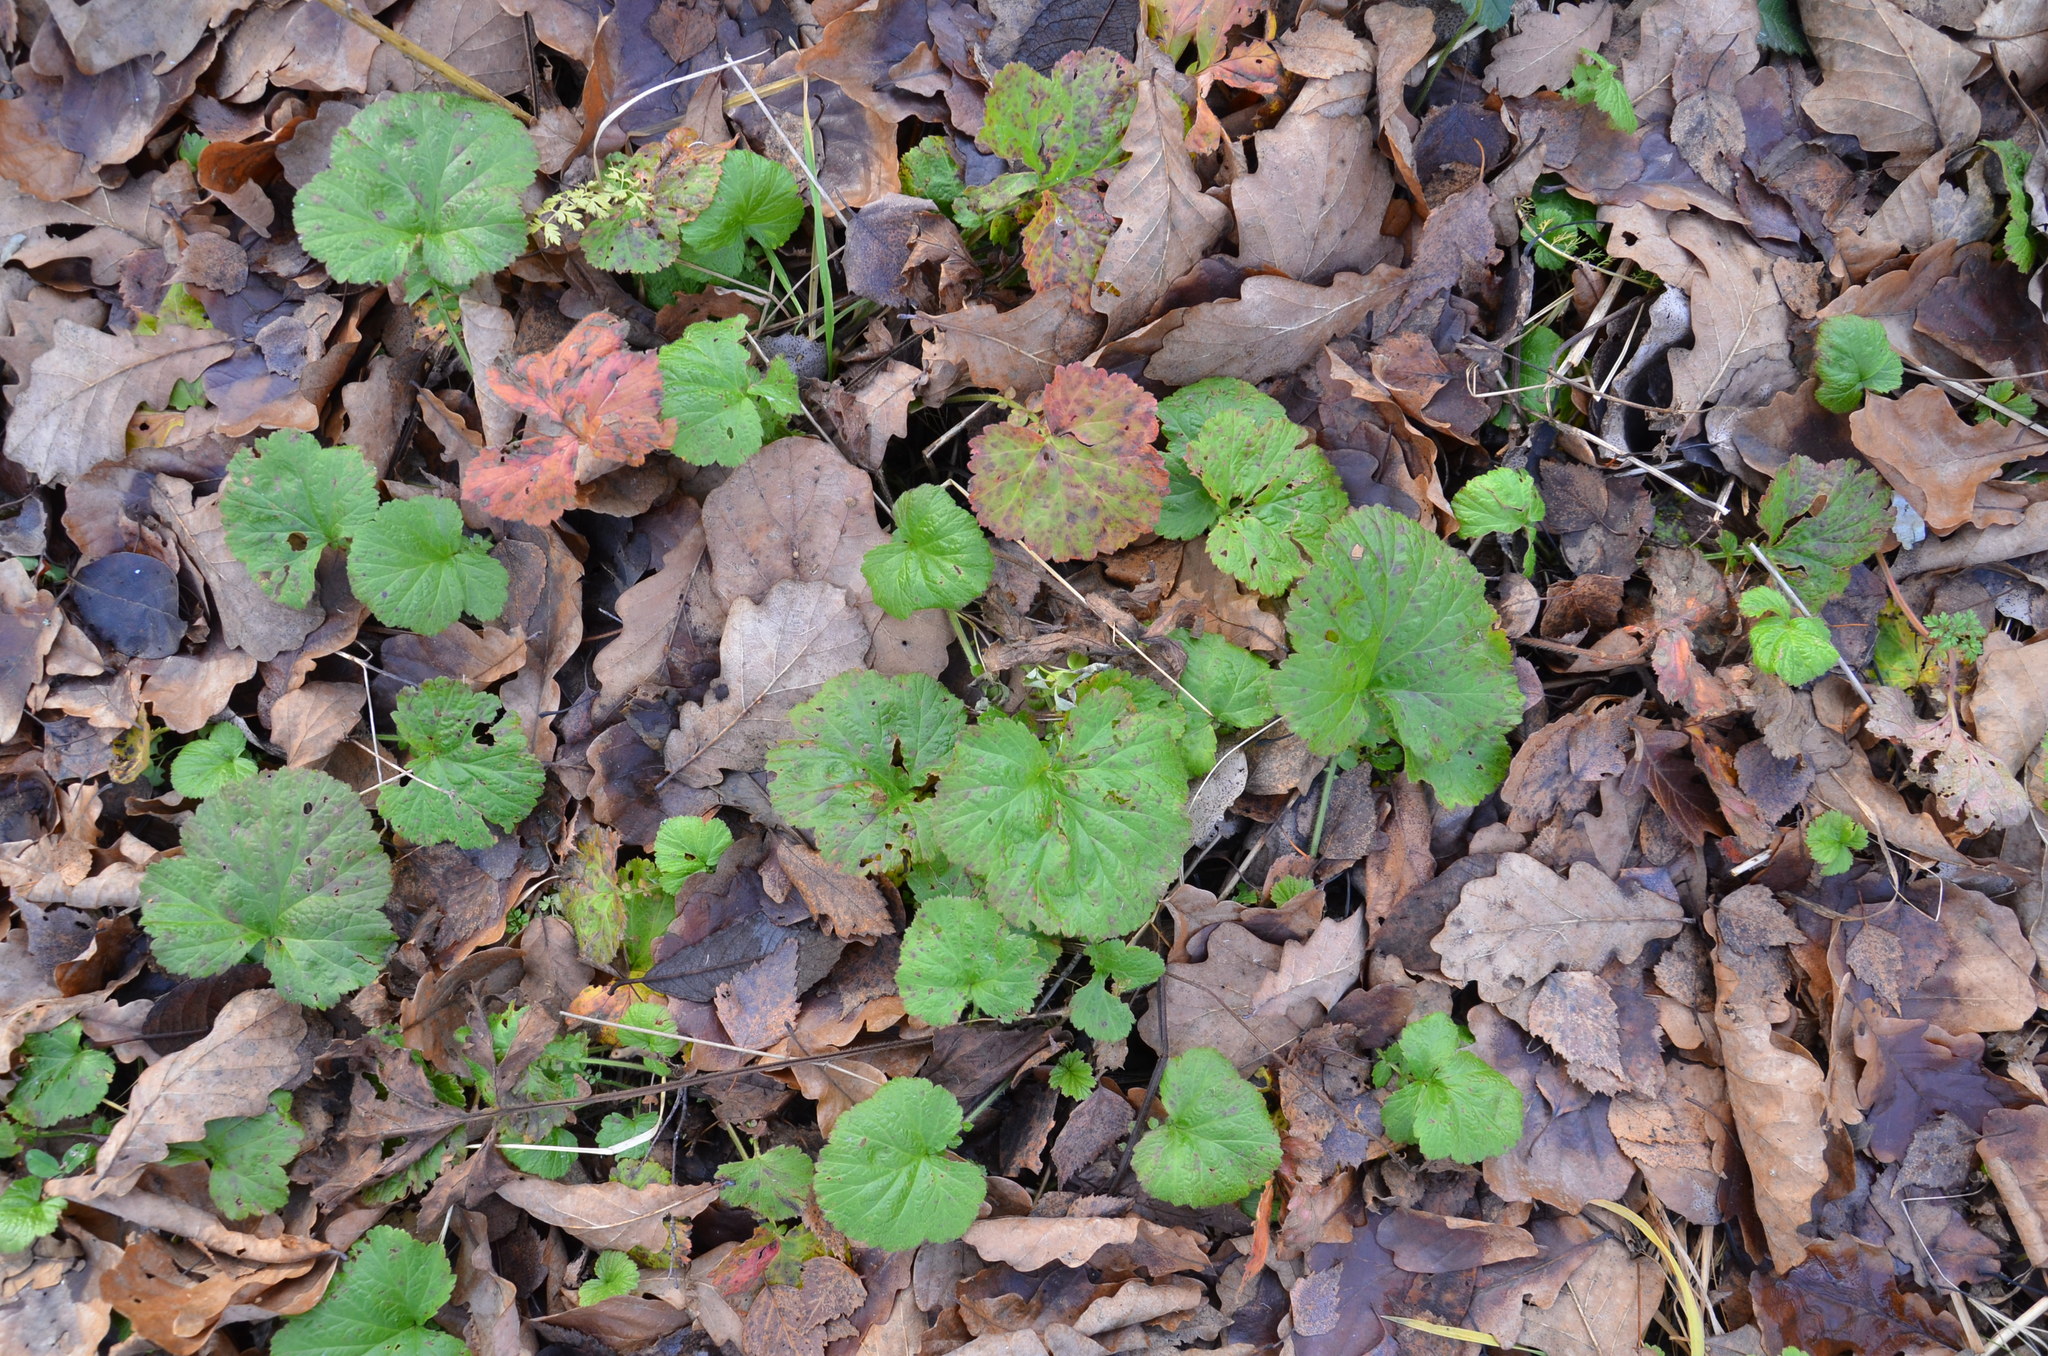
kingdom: Plantae
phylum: Tracheophyta
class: Magnoliopsida
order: Rosales
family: Rosaceae
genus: Geum
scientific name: Geum
